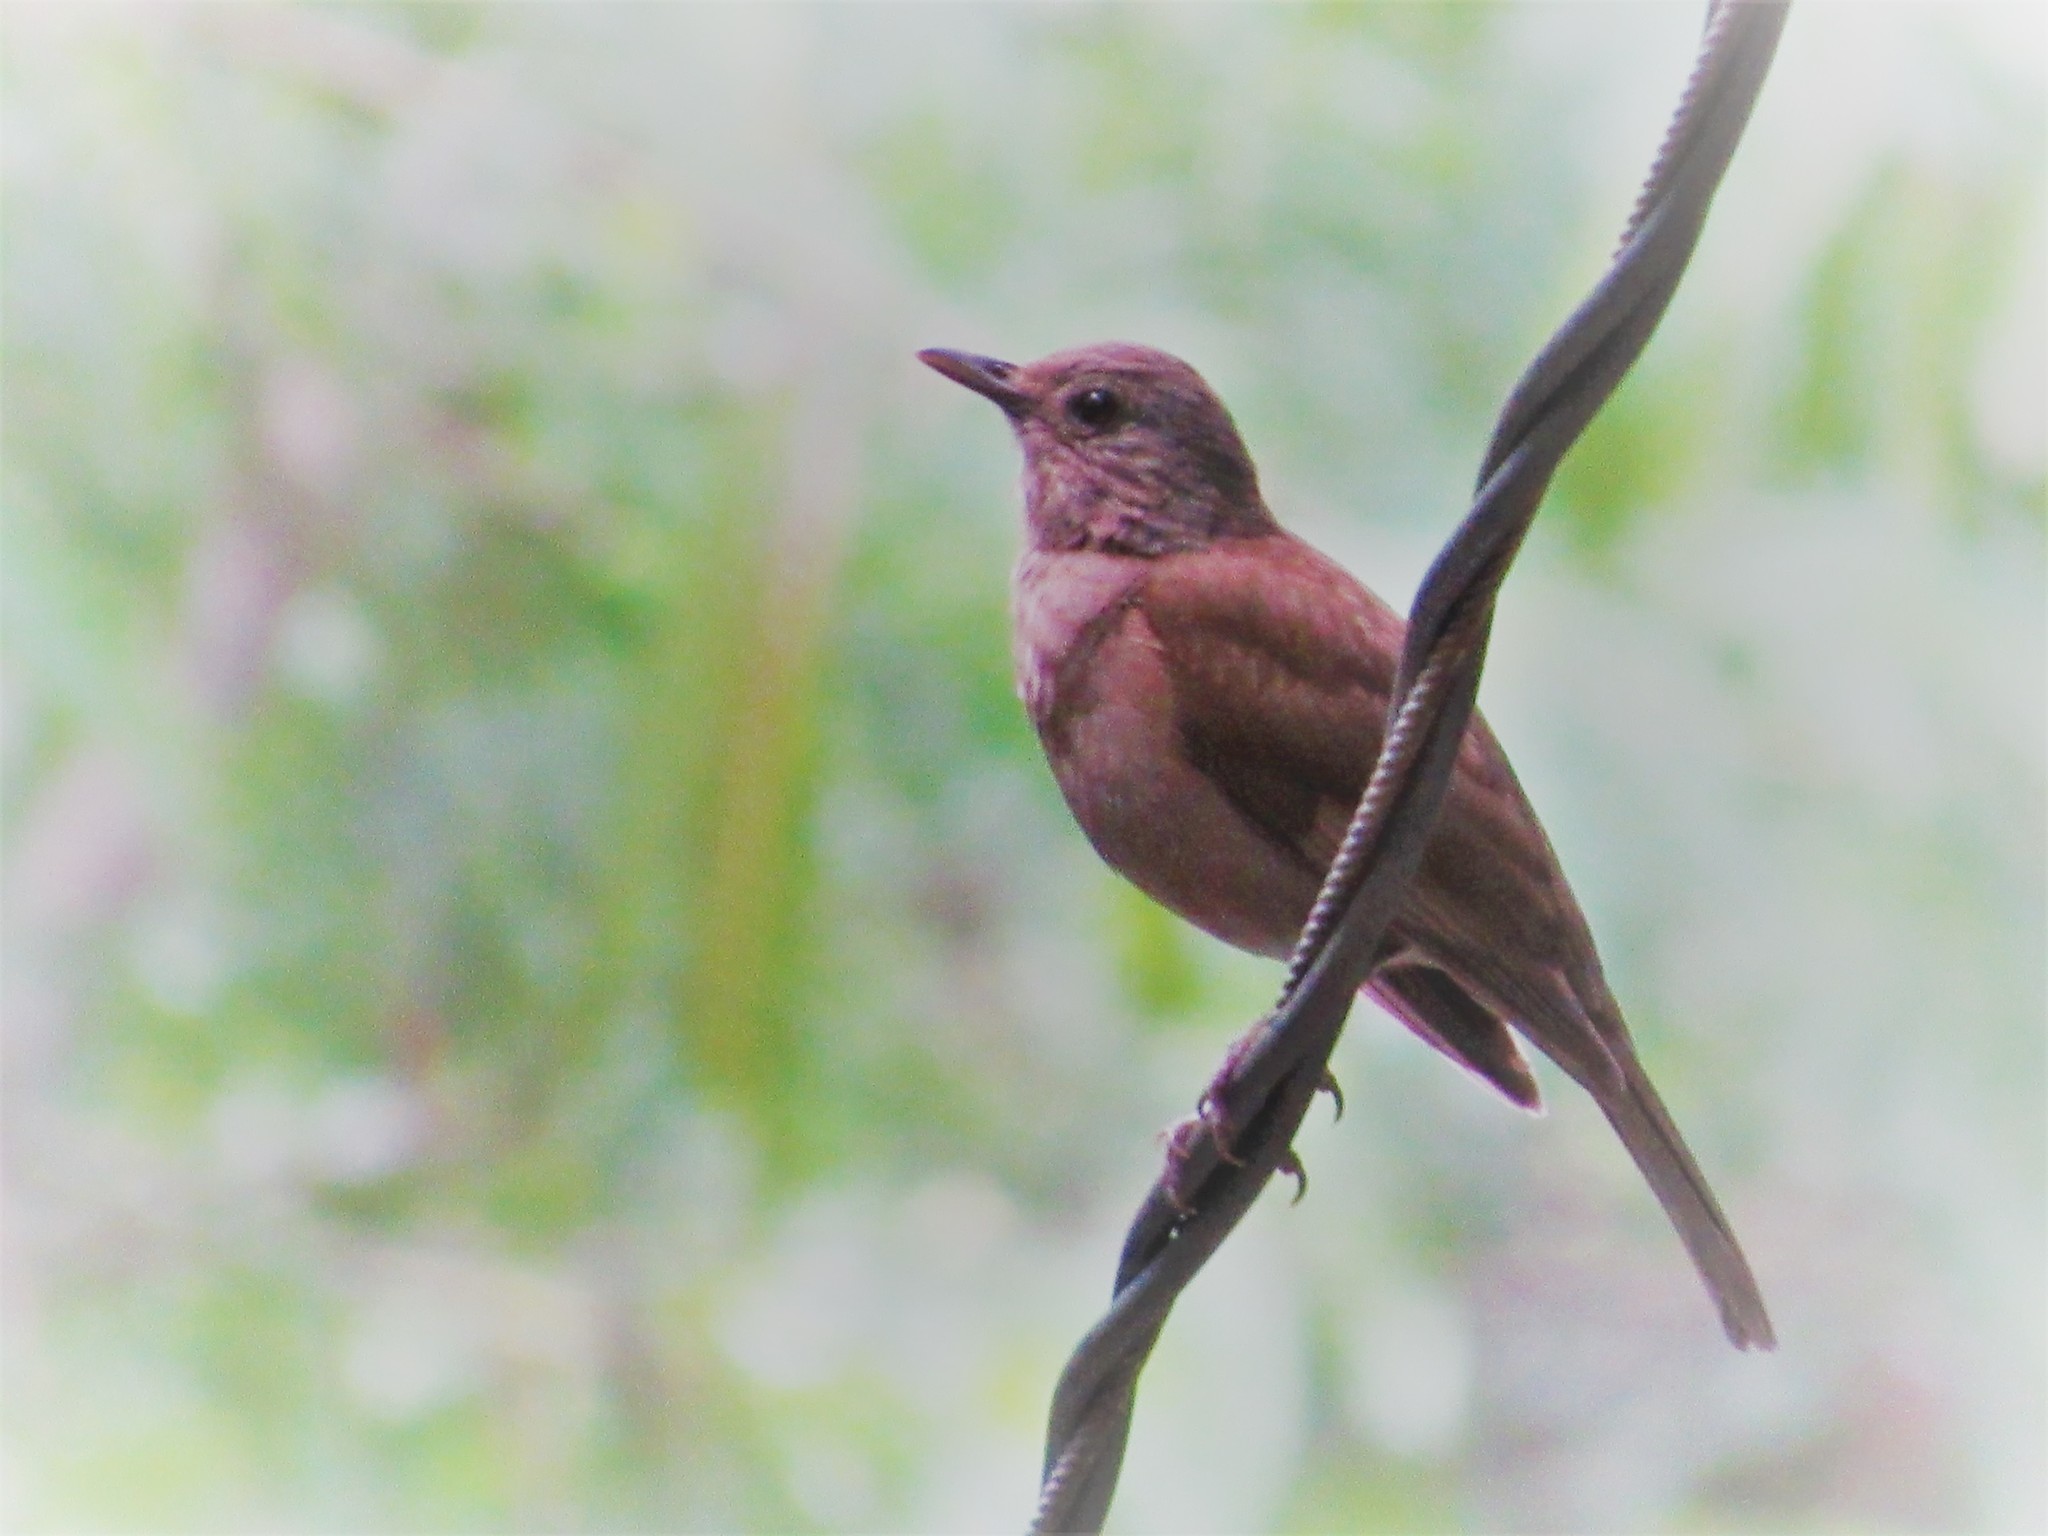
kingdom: Animalia
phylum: Chordata
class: Aves
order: Passeriformes
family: Turdidae
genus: Turdus
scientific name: Turdus leucomelas
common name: Pale-breasted thrush
